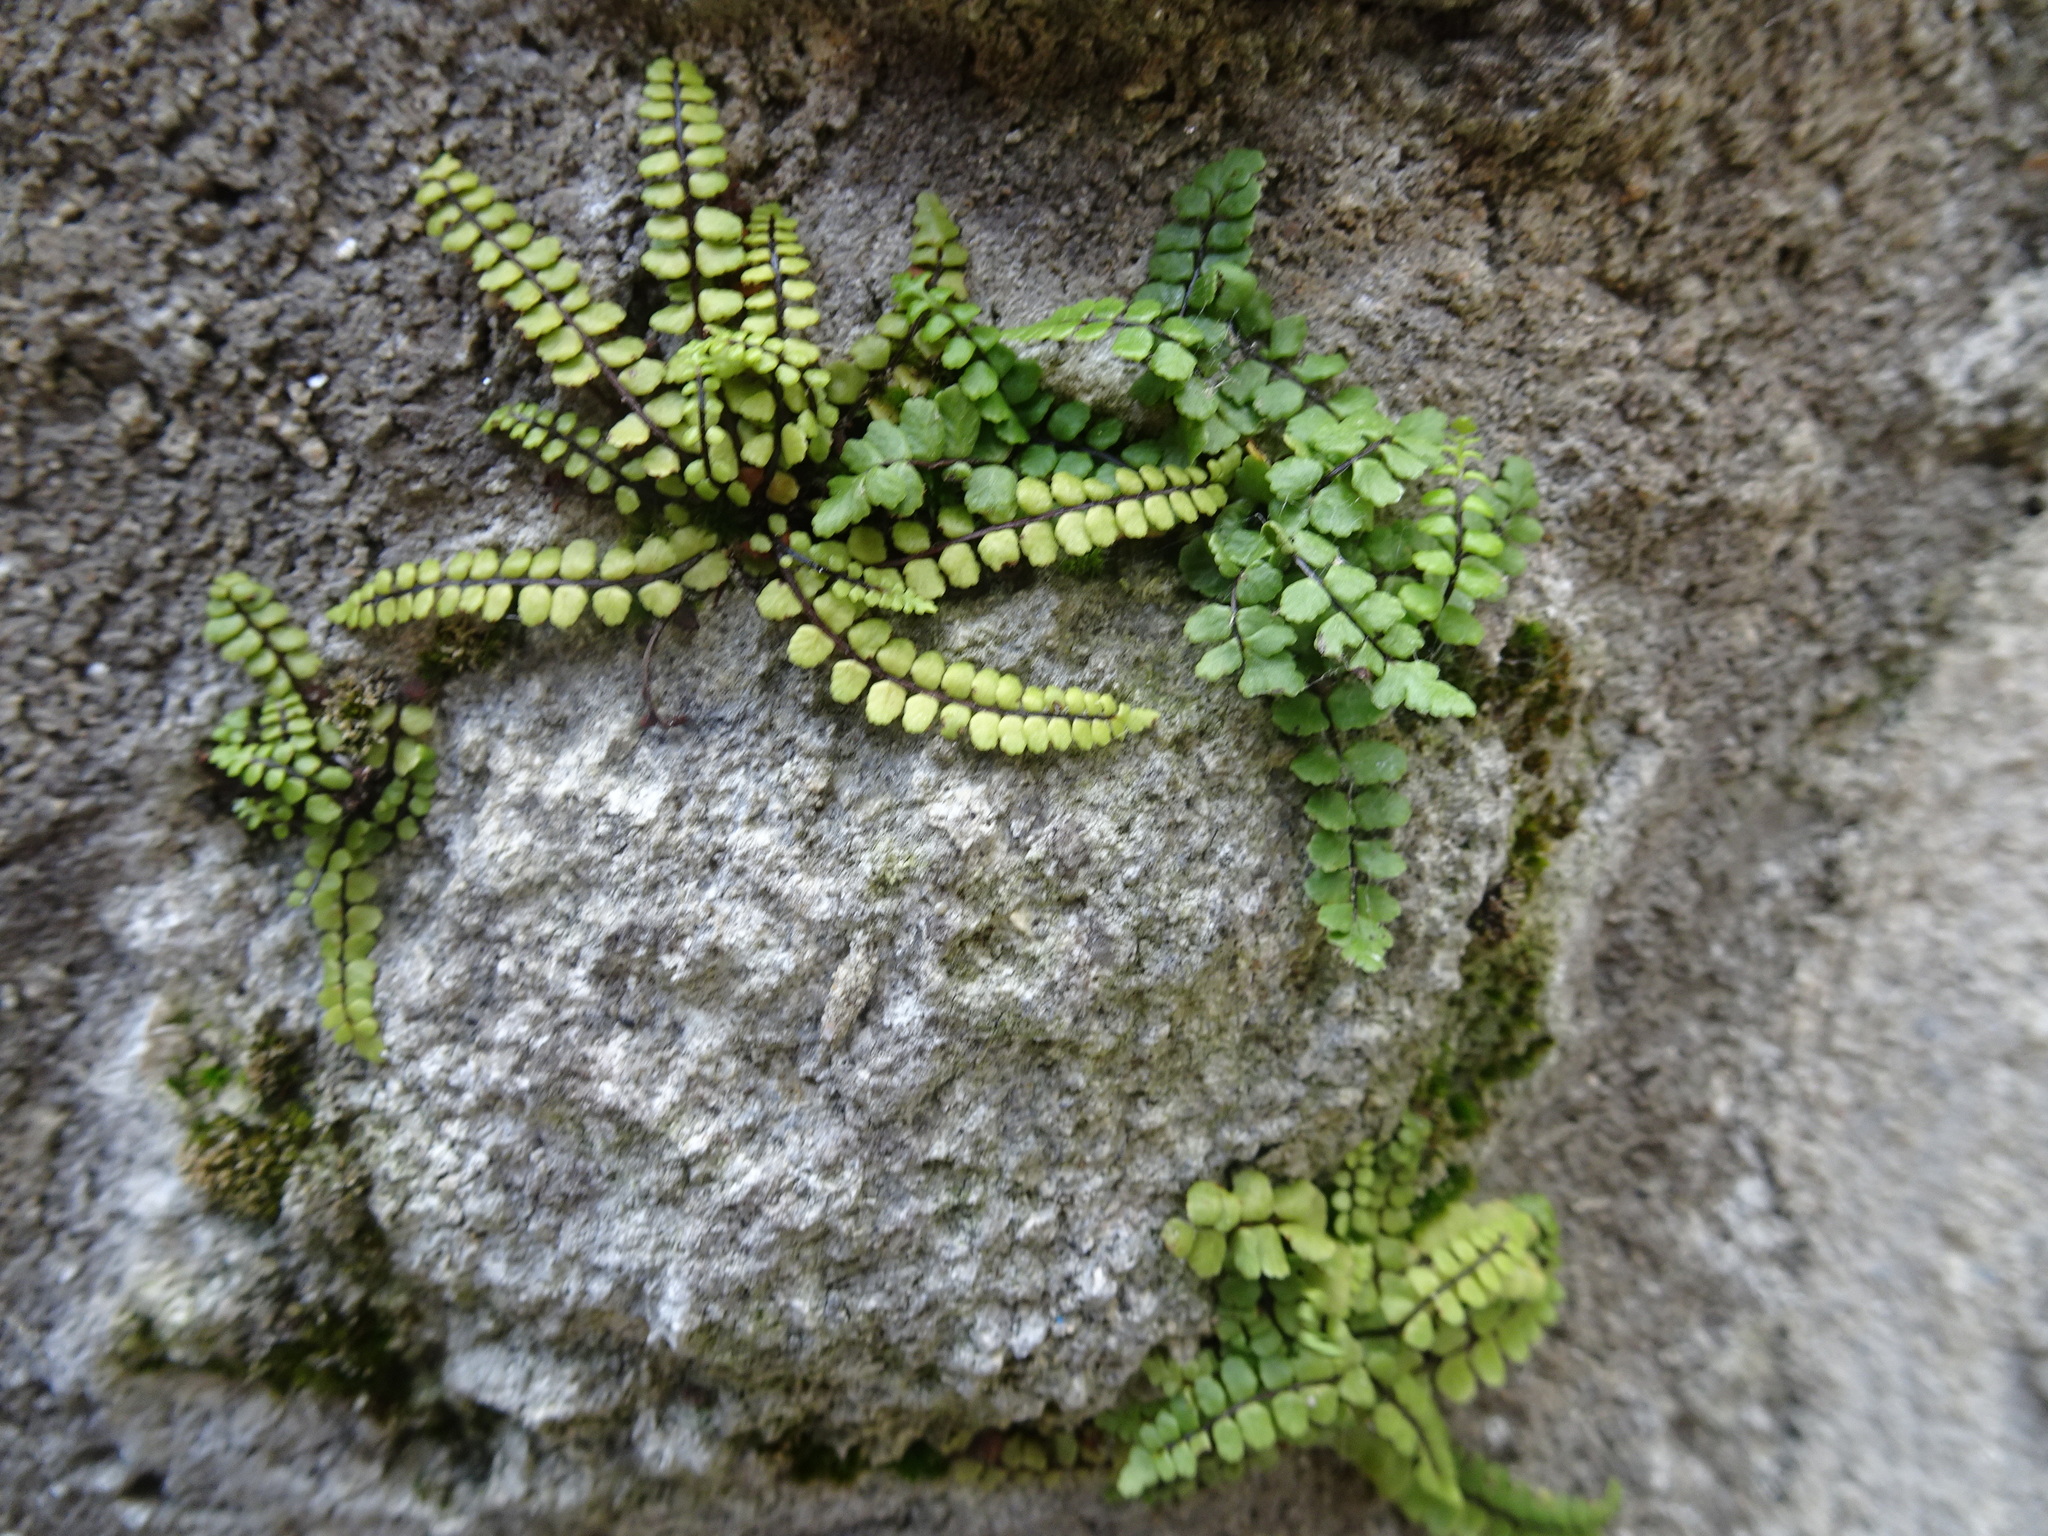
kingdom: Plantae
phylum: Tracheophyta
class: Polypodiopsida
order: Polypodiales
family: Aspleniaceae
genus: Asplenium
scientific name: Asplenium trichomanes
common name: Maidenhair spleenwort
